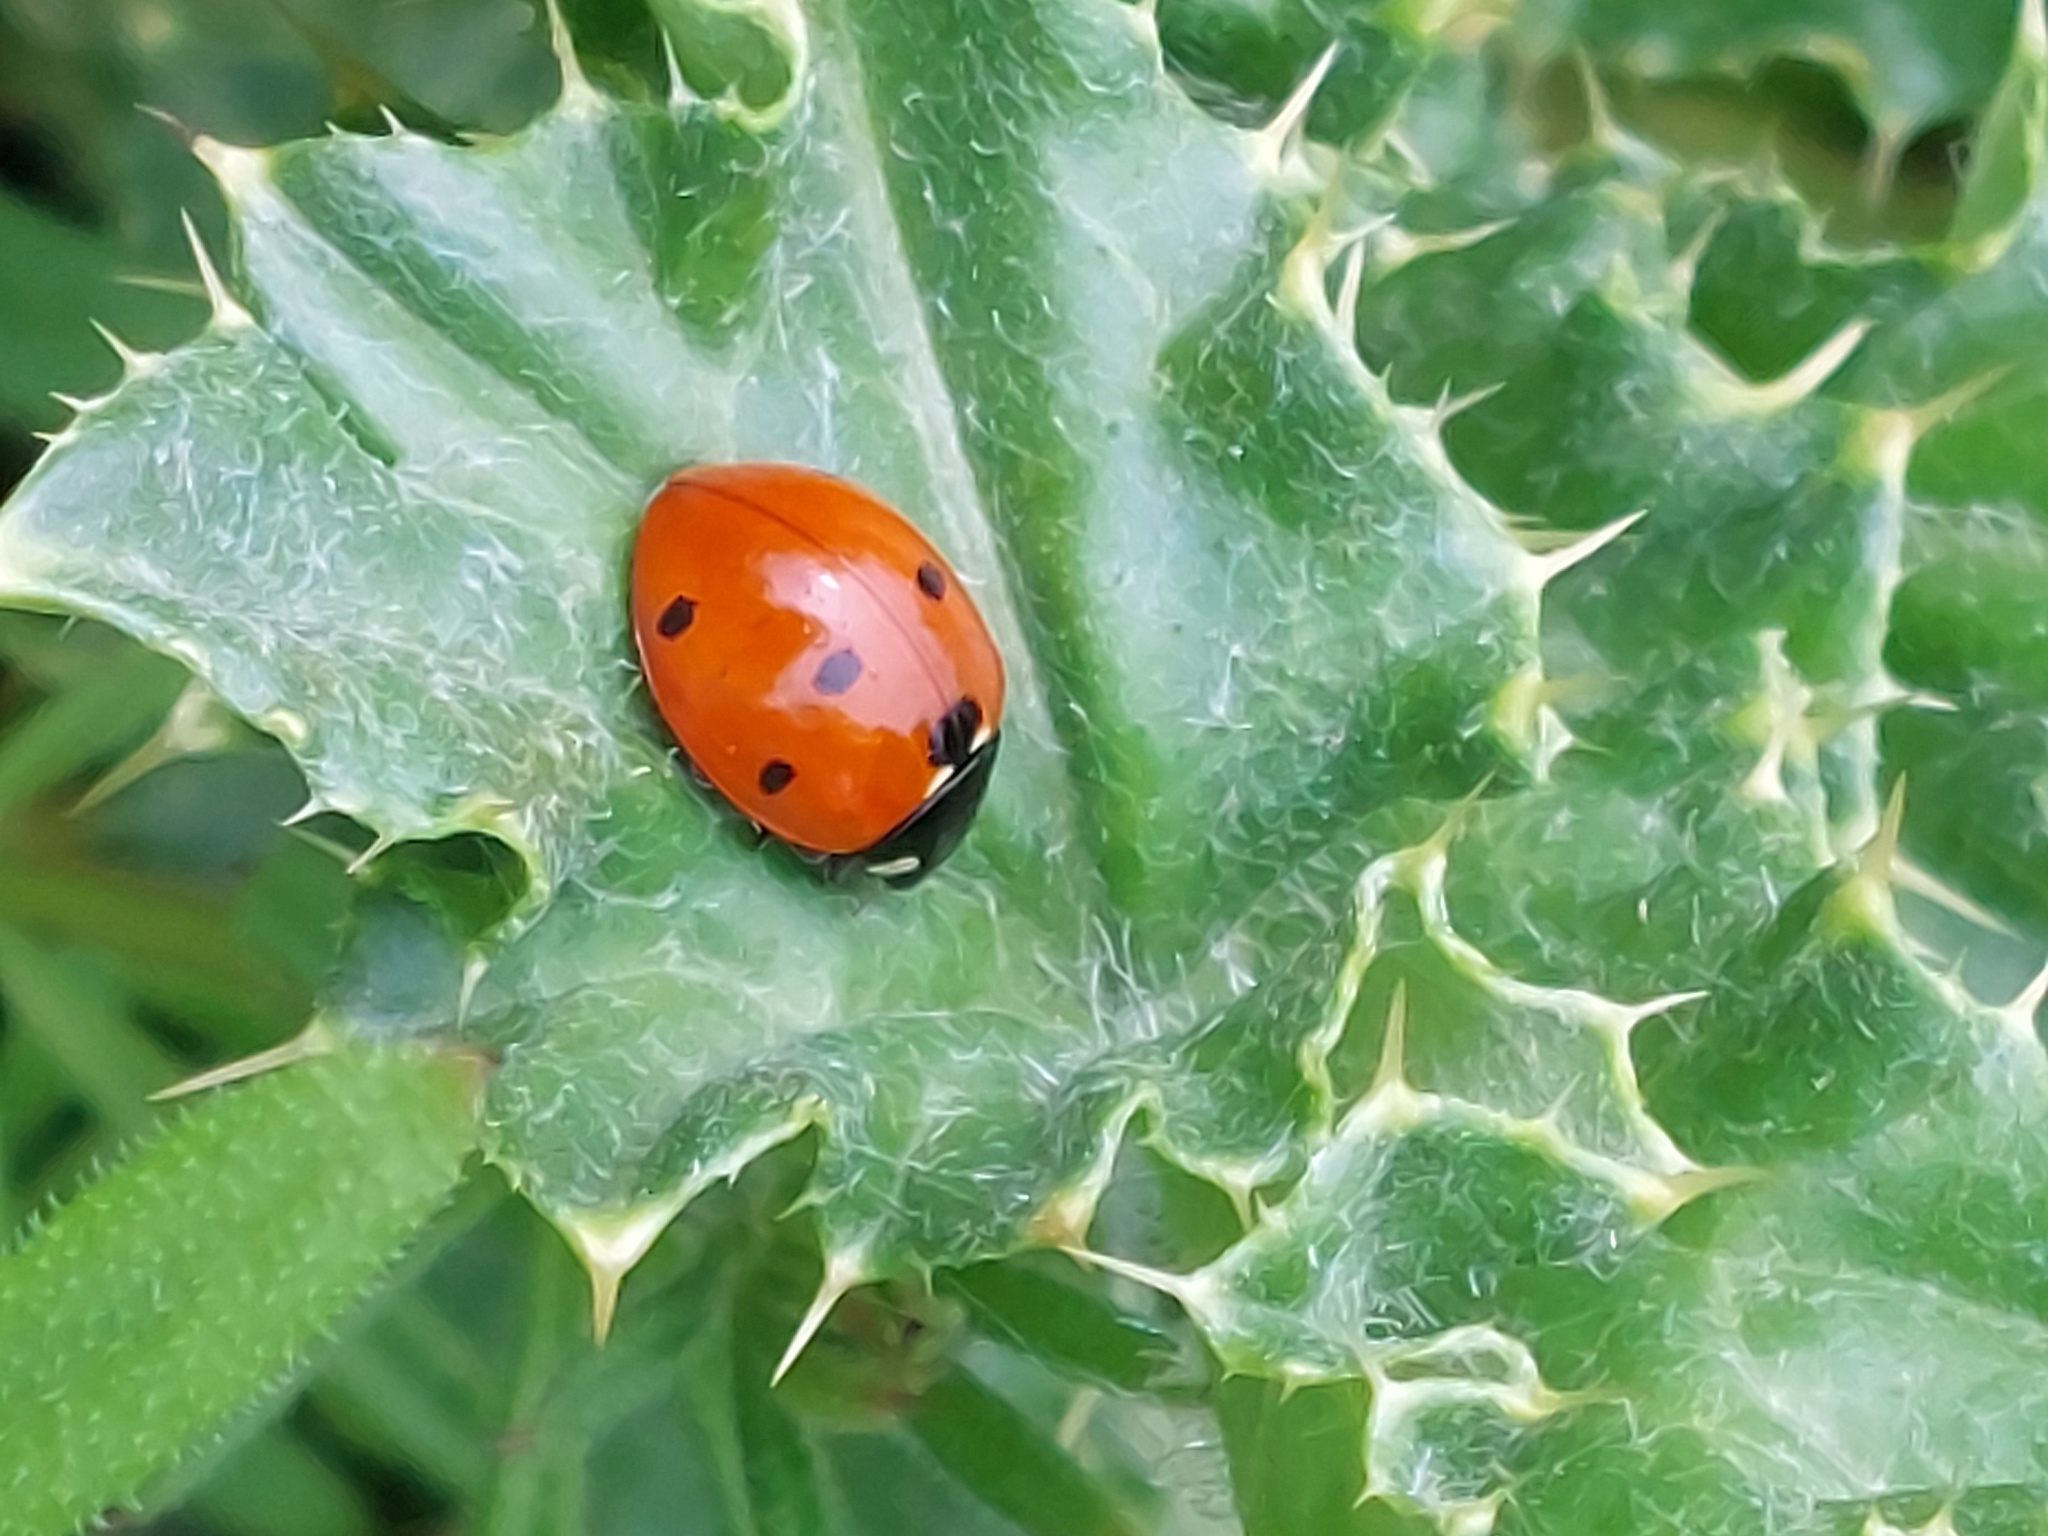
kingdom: Animalia
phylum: Arthropoda
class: Insecta
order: Coleoptera
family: Coccinellidae
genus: Coccinella
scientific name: Coccinella septempunctata
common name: Sevenspotted lady beetle
